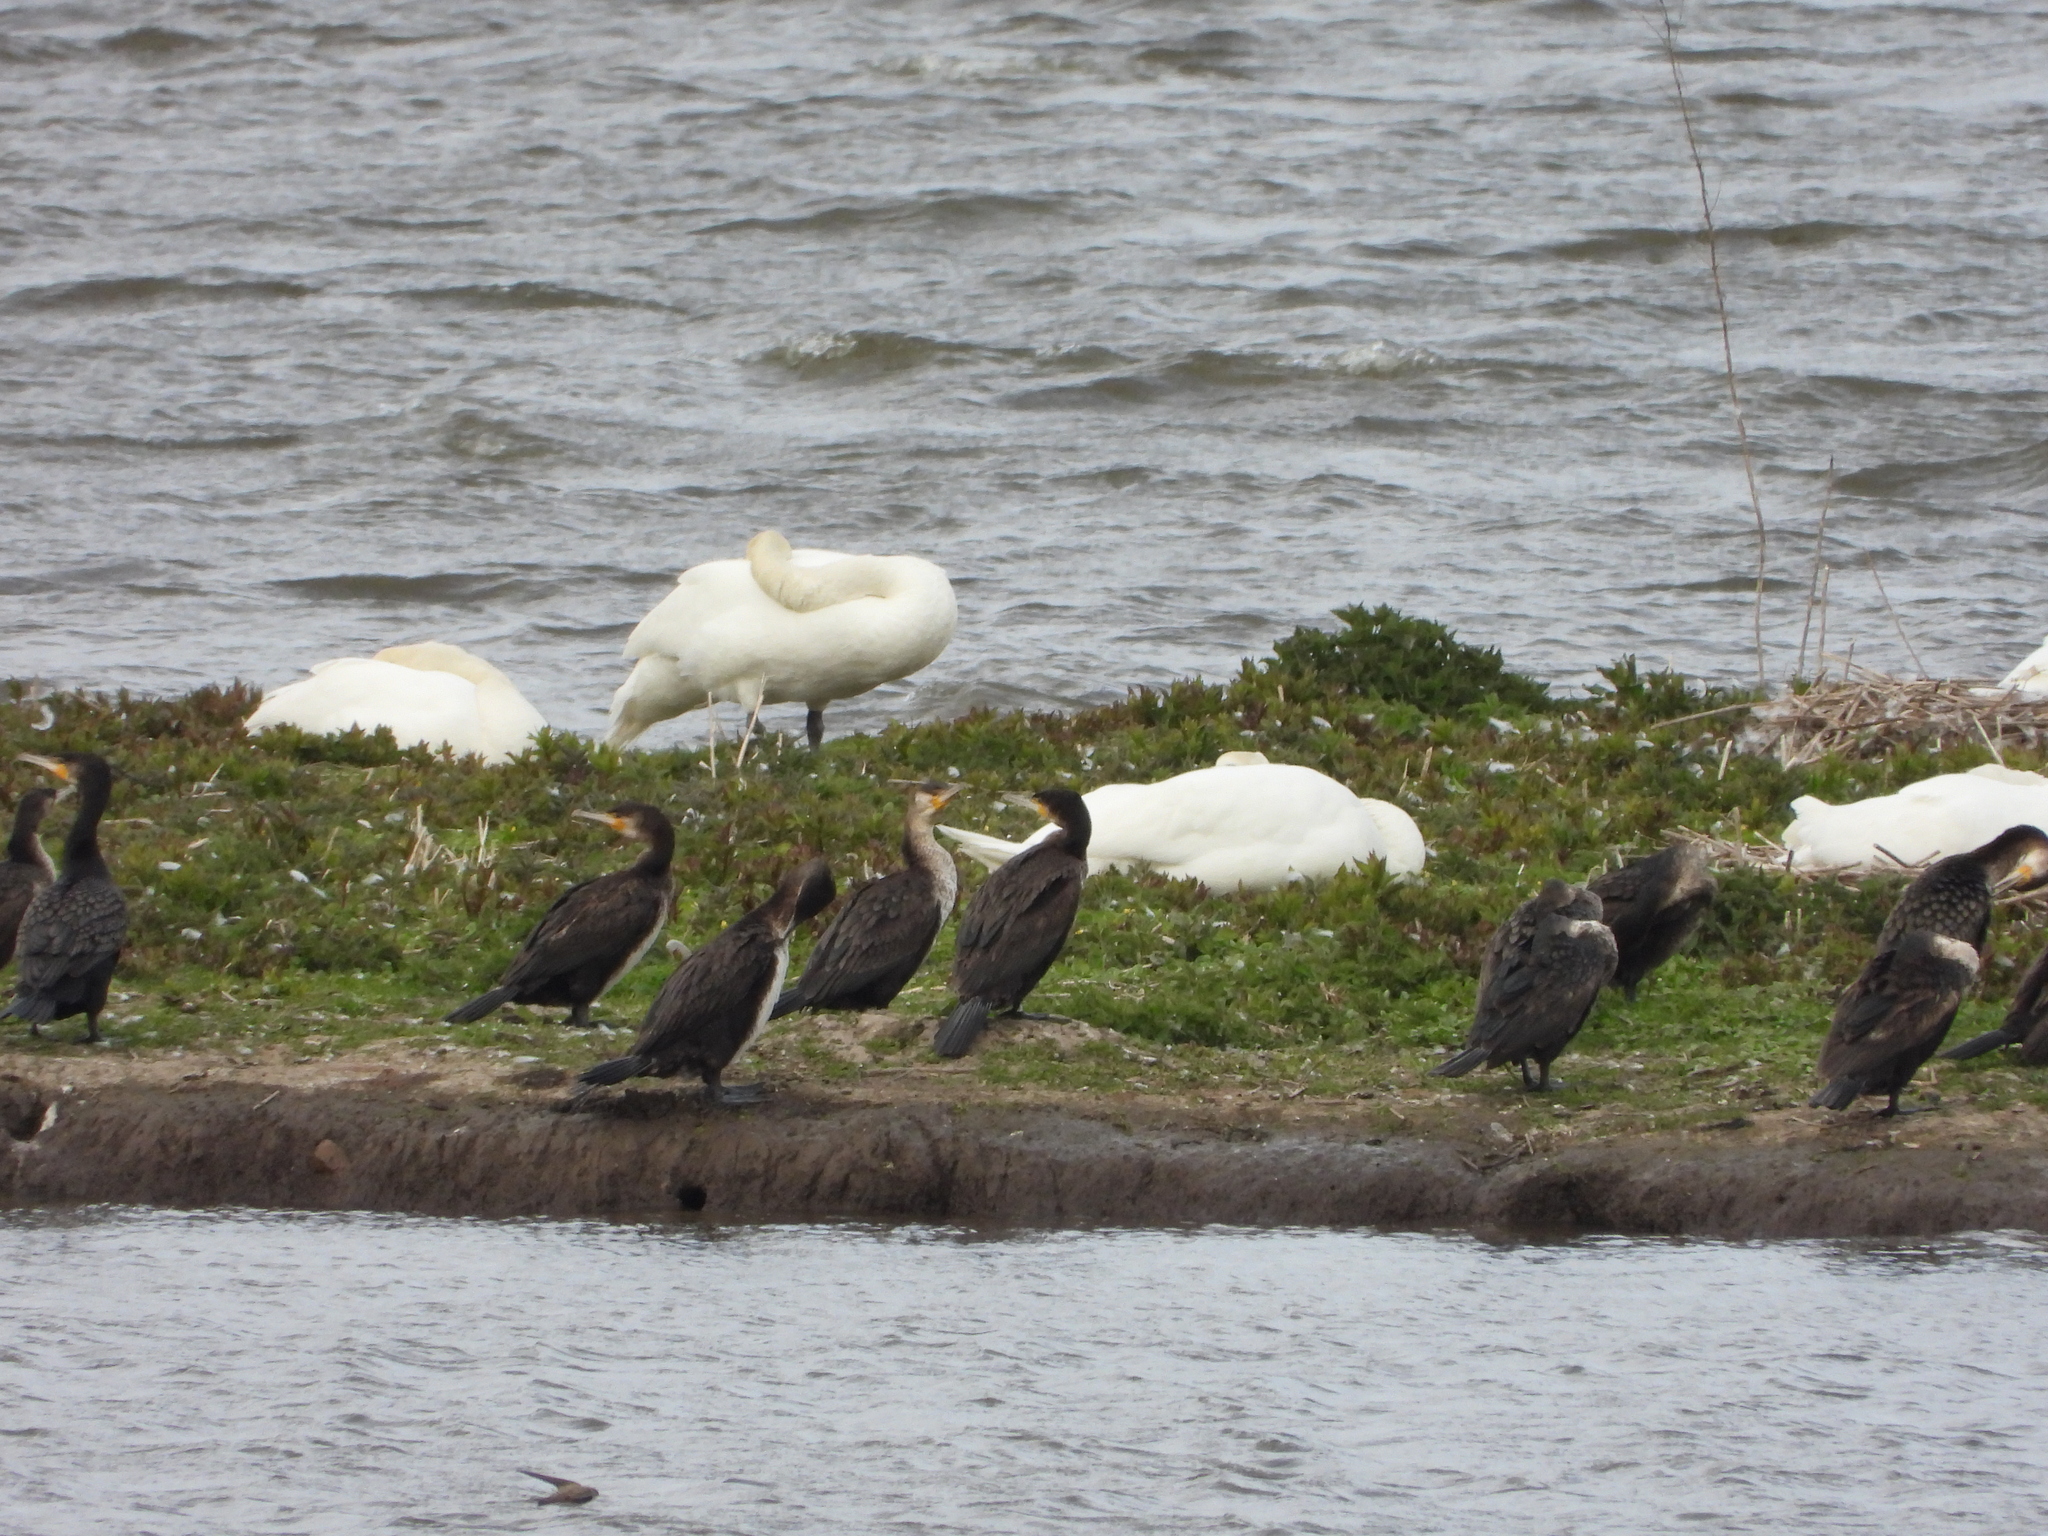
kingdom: Animalia
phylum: Chordata
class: Aves
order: Suliformes
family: Phalacrocoracidae
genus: Phalacrocorax
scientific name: Phalacrocorax carbo
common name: Great cormorant
